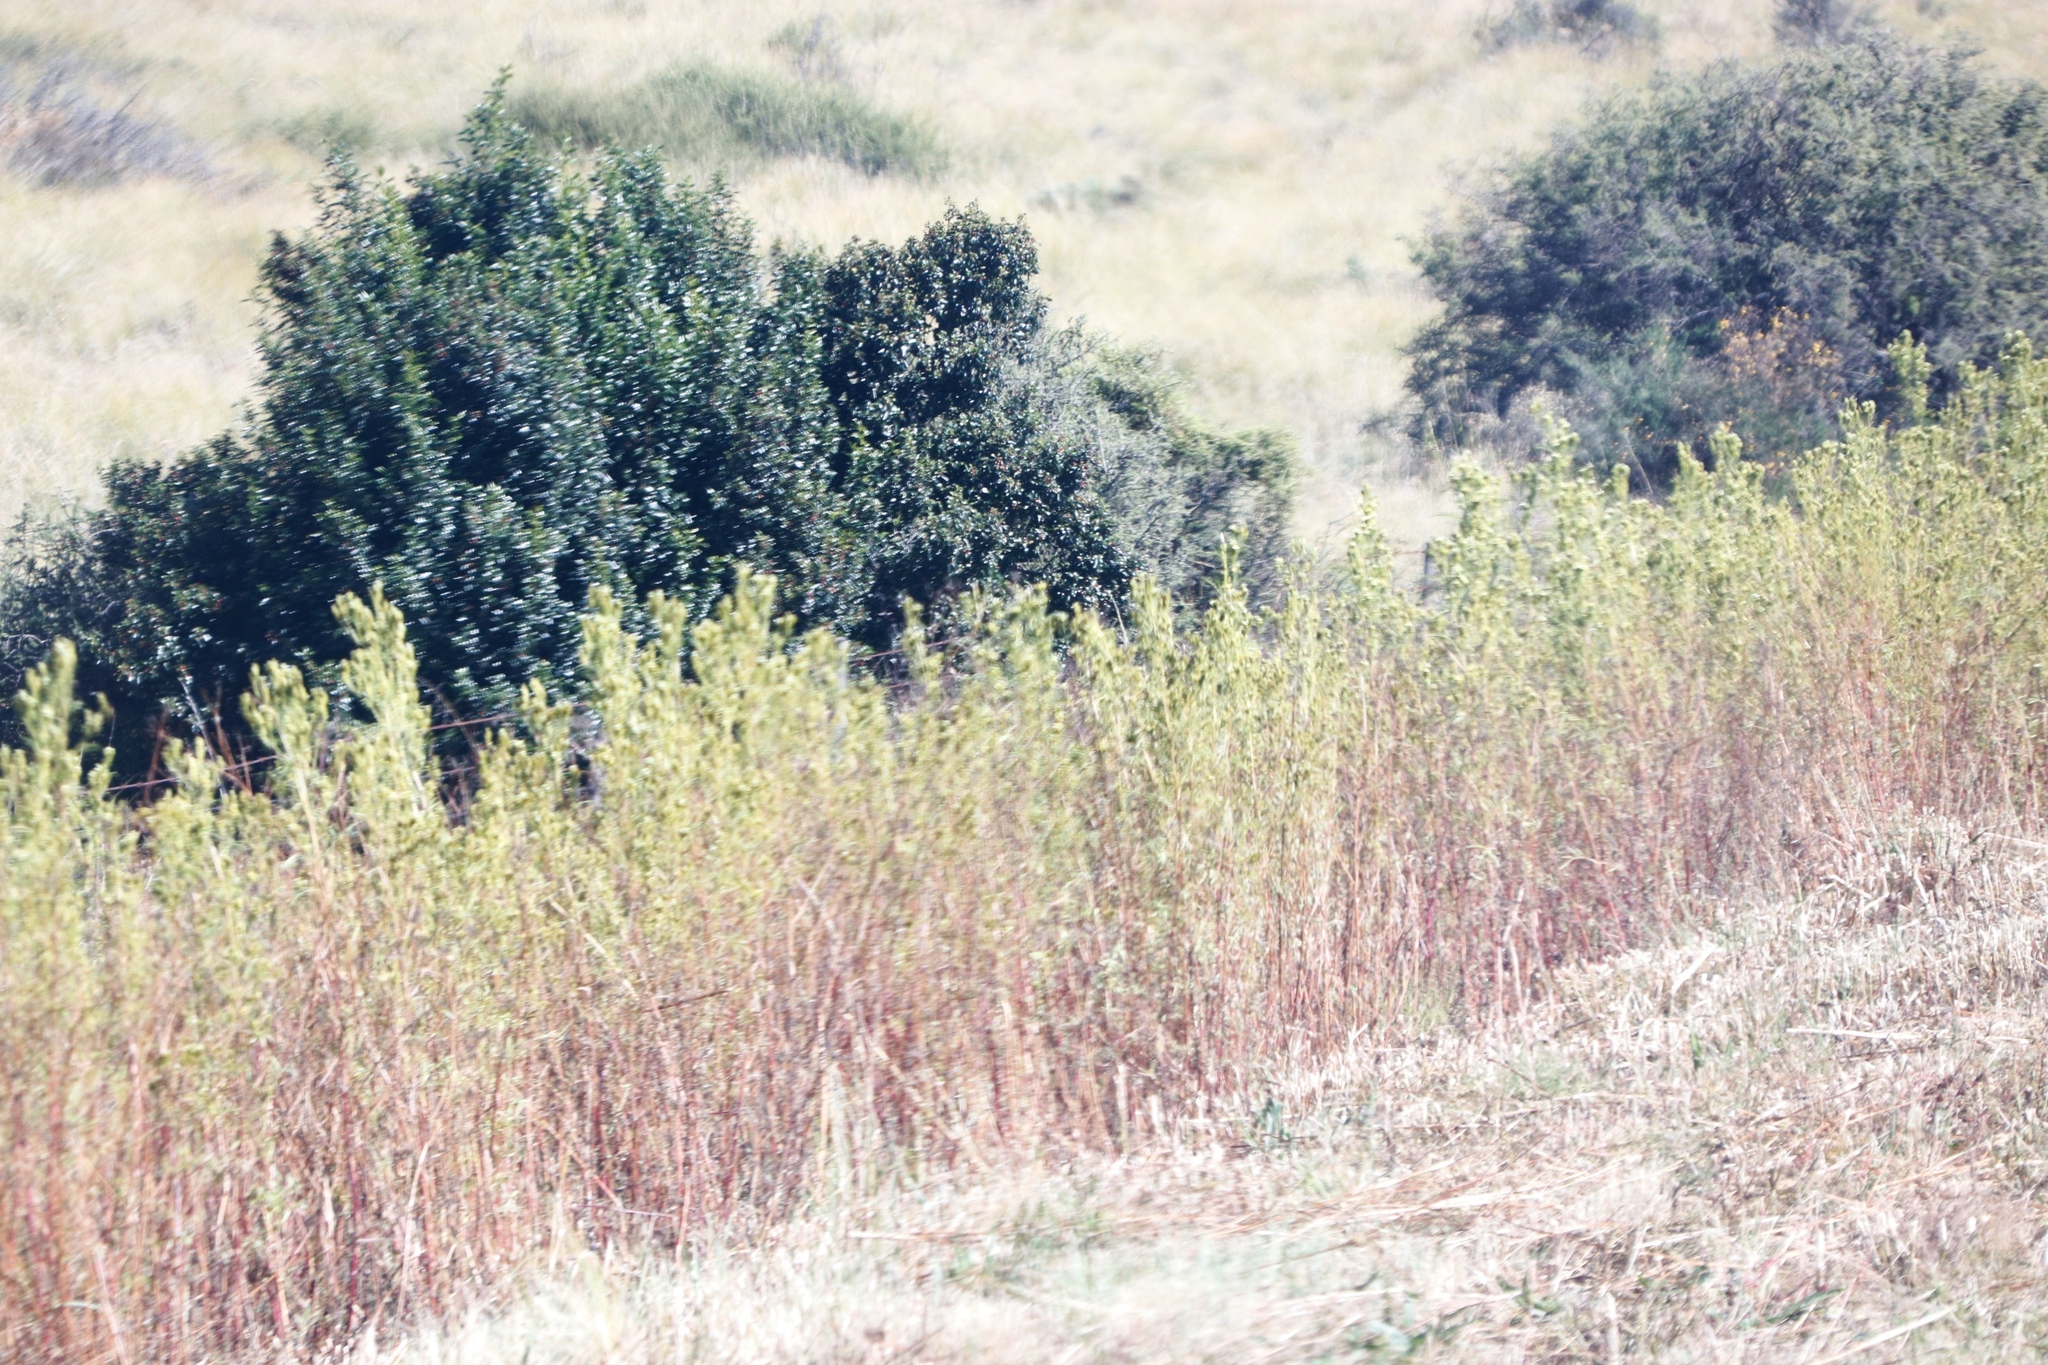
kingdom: Plantae
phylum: Tracheophyta
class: Magnoliopsida
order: Asterales
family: Asteraceae
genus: Tagetes
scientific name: Tagetes minuta
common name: Muster john henry
